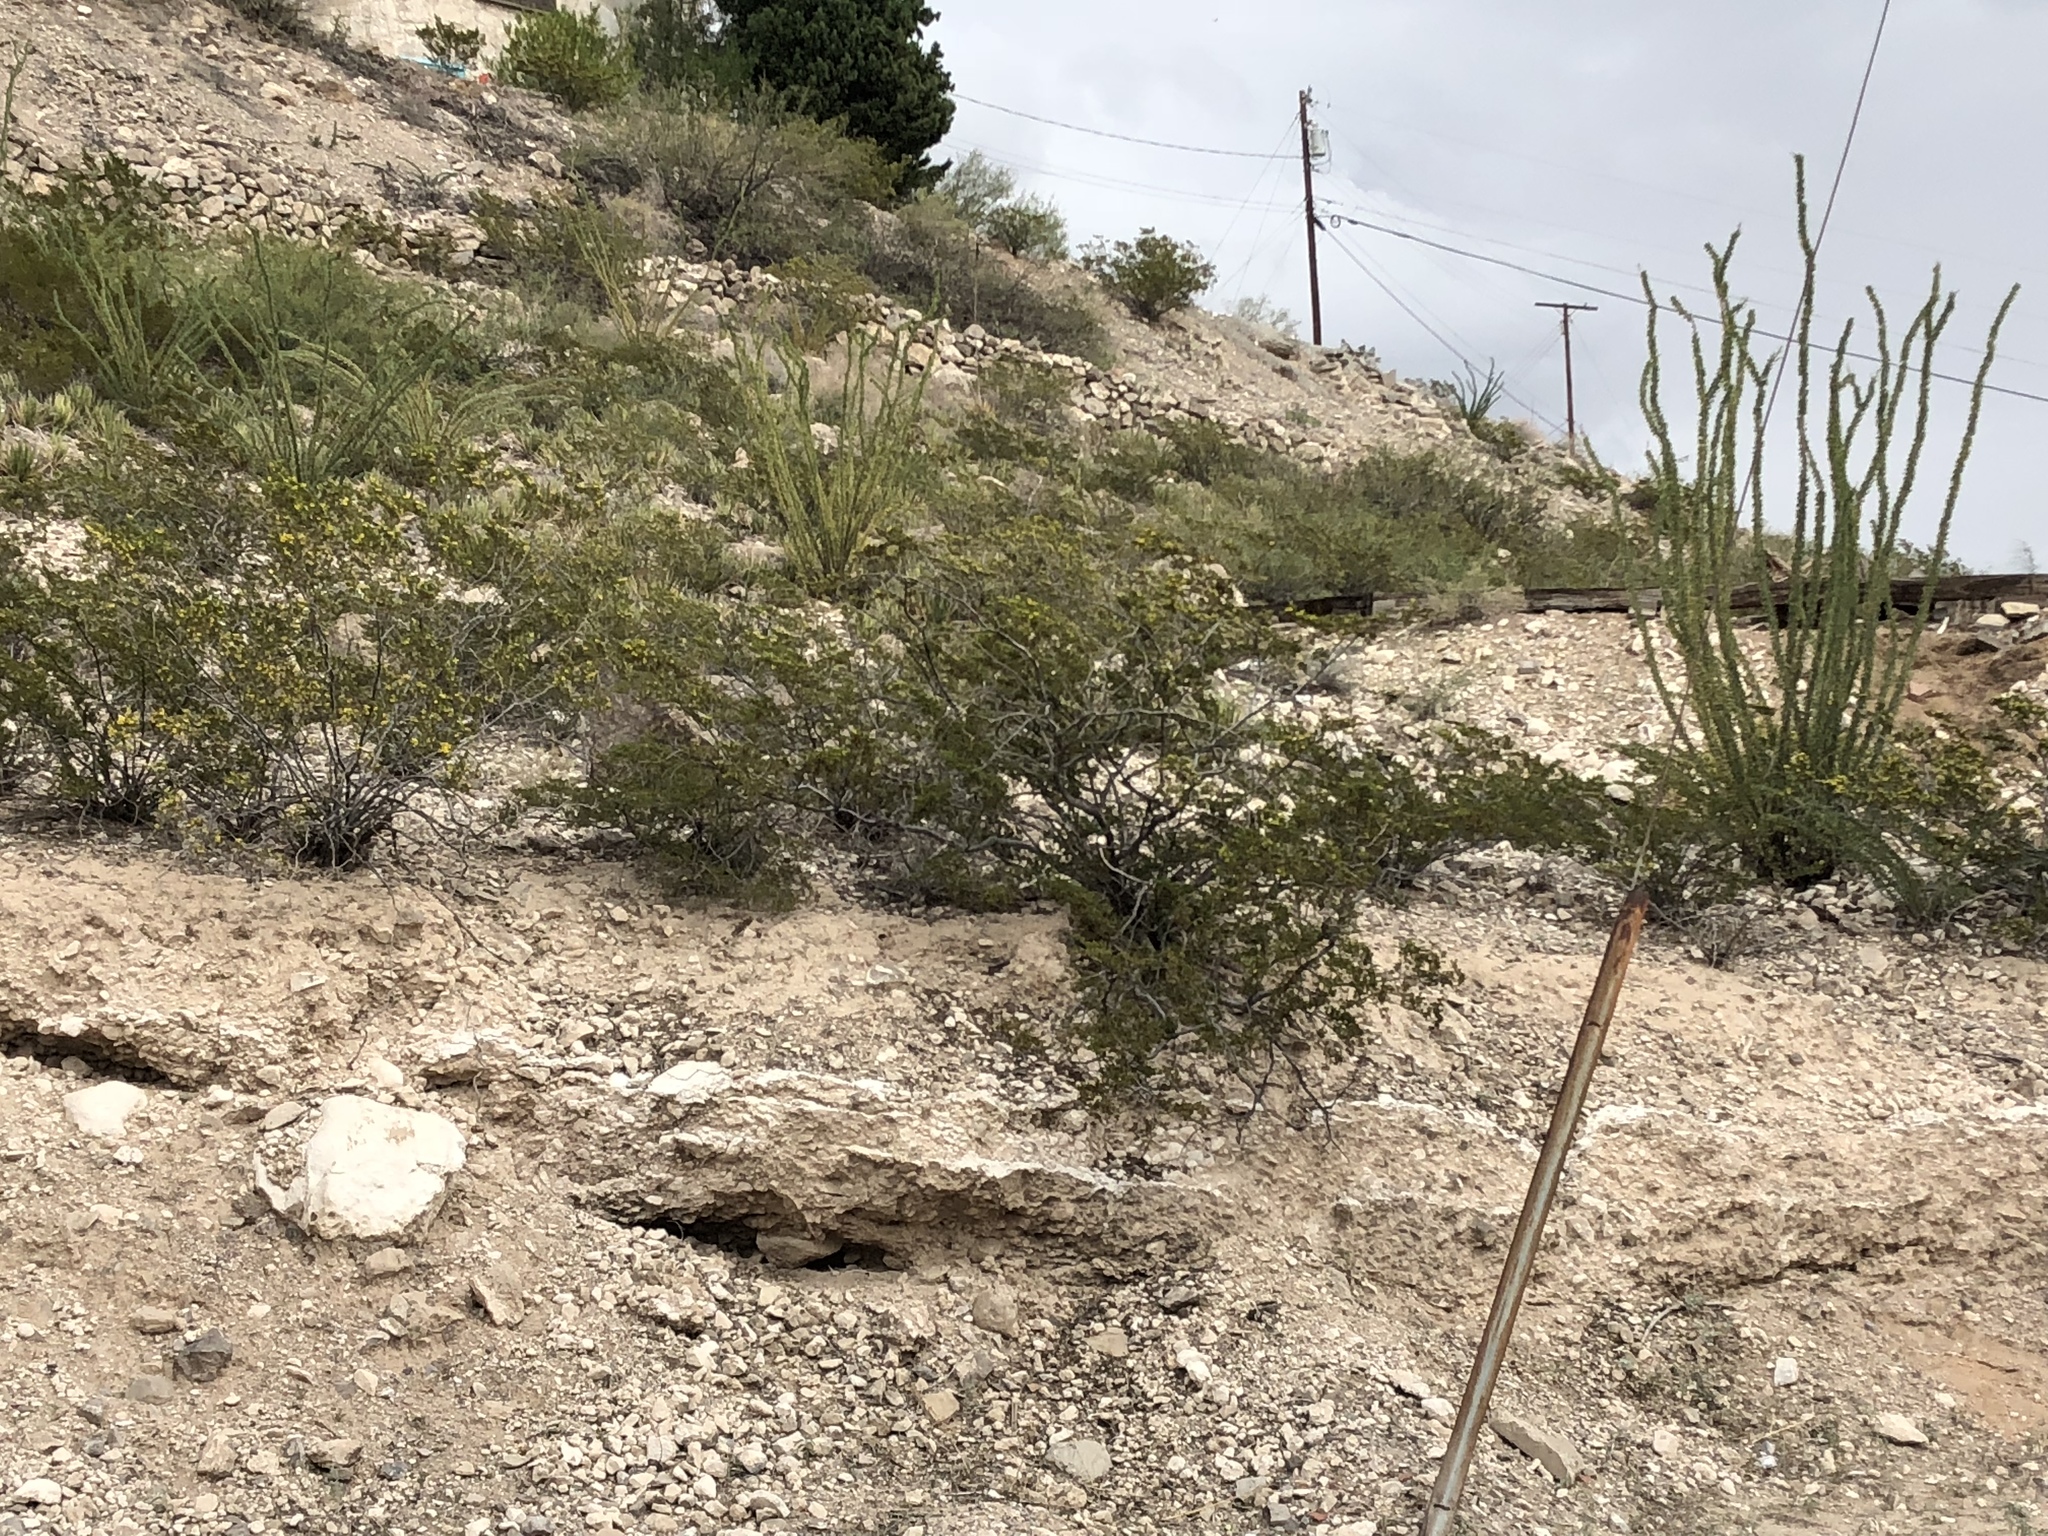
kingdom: Plantae
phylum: Tracheophyta
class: Magnoliopsida
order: Ericales
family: Fouquieriaceae
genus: Fouquieria
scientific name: Fouquieria splendens
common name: Vine-cactus
